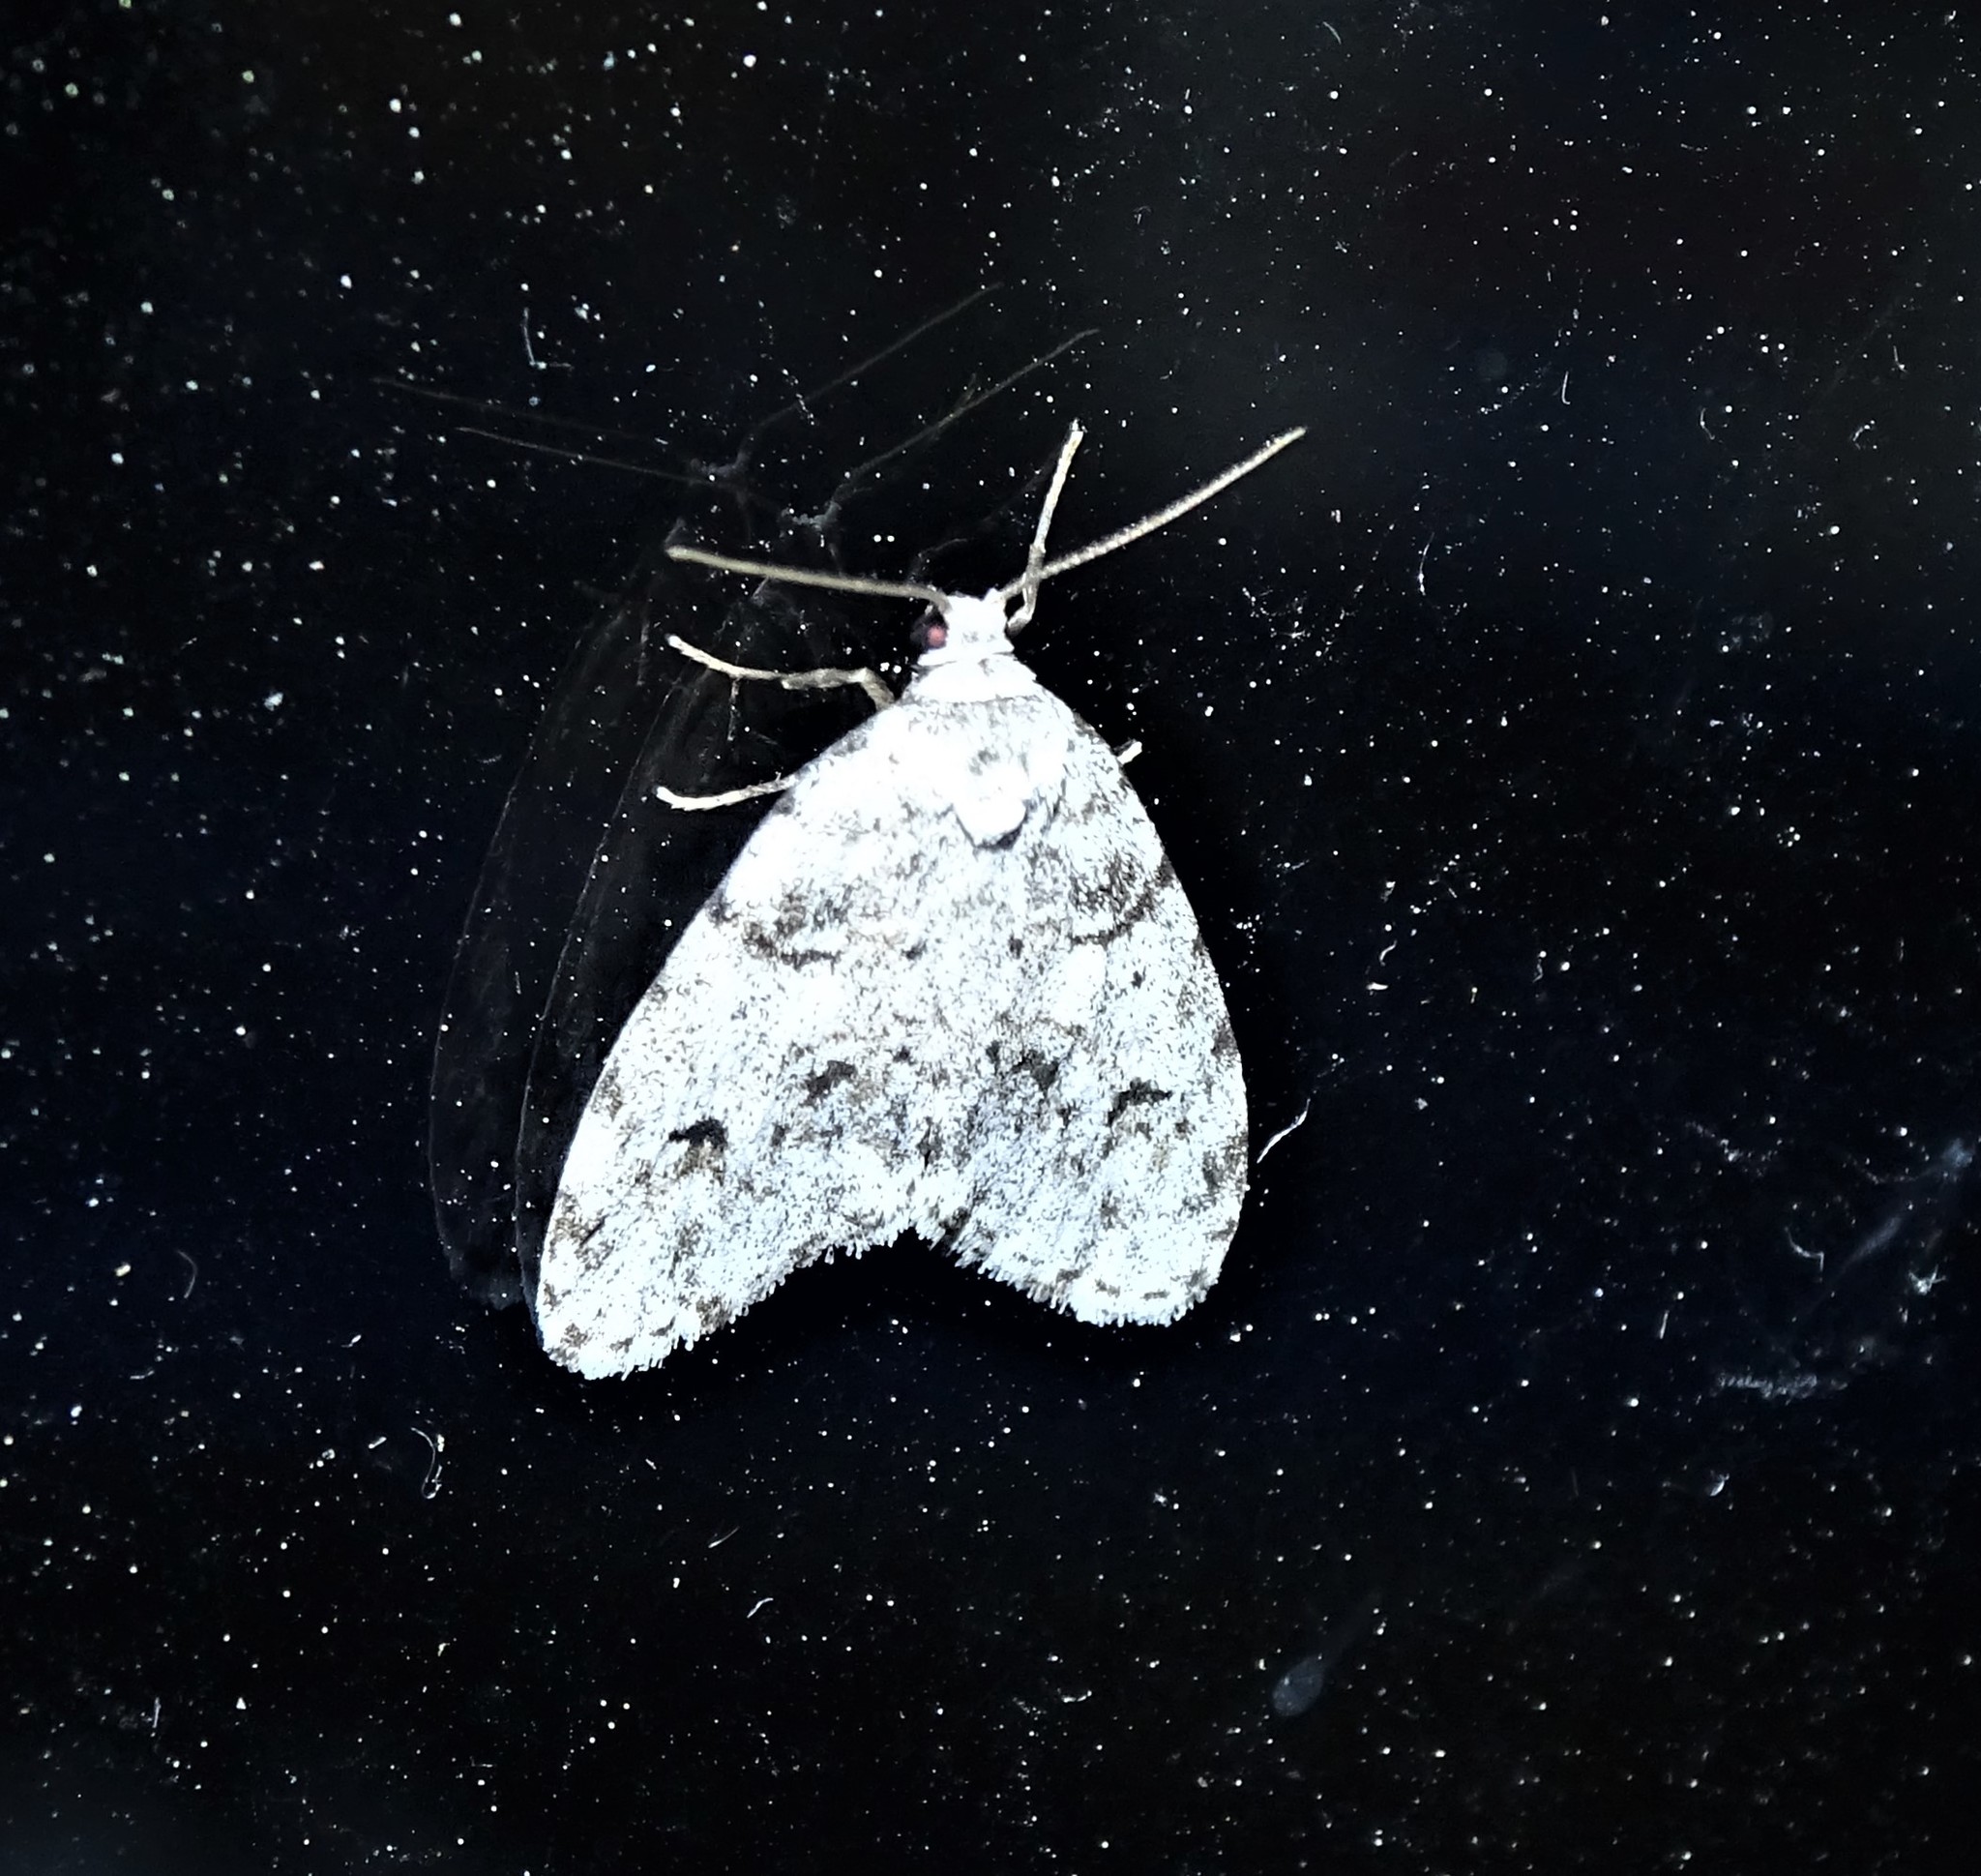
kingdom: Animalia
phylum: Arthropoda
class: Insecta
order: Lepidoptera
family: Erebidae
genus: Clemensia
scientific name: Clemensia albata
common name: Little white lichen moth
